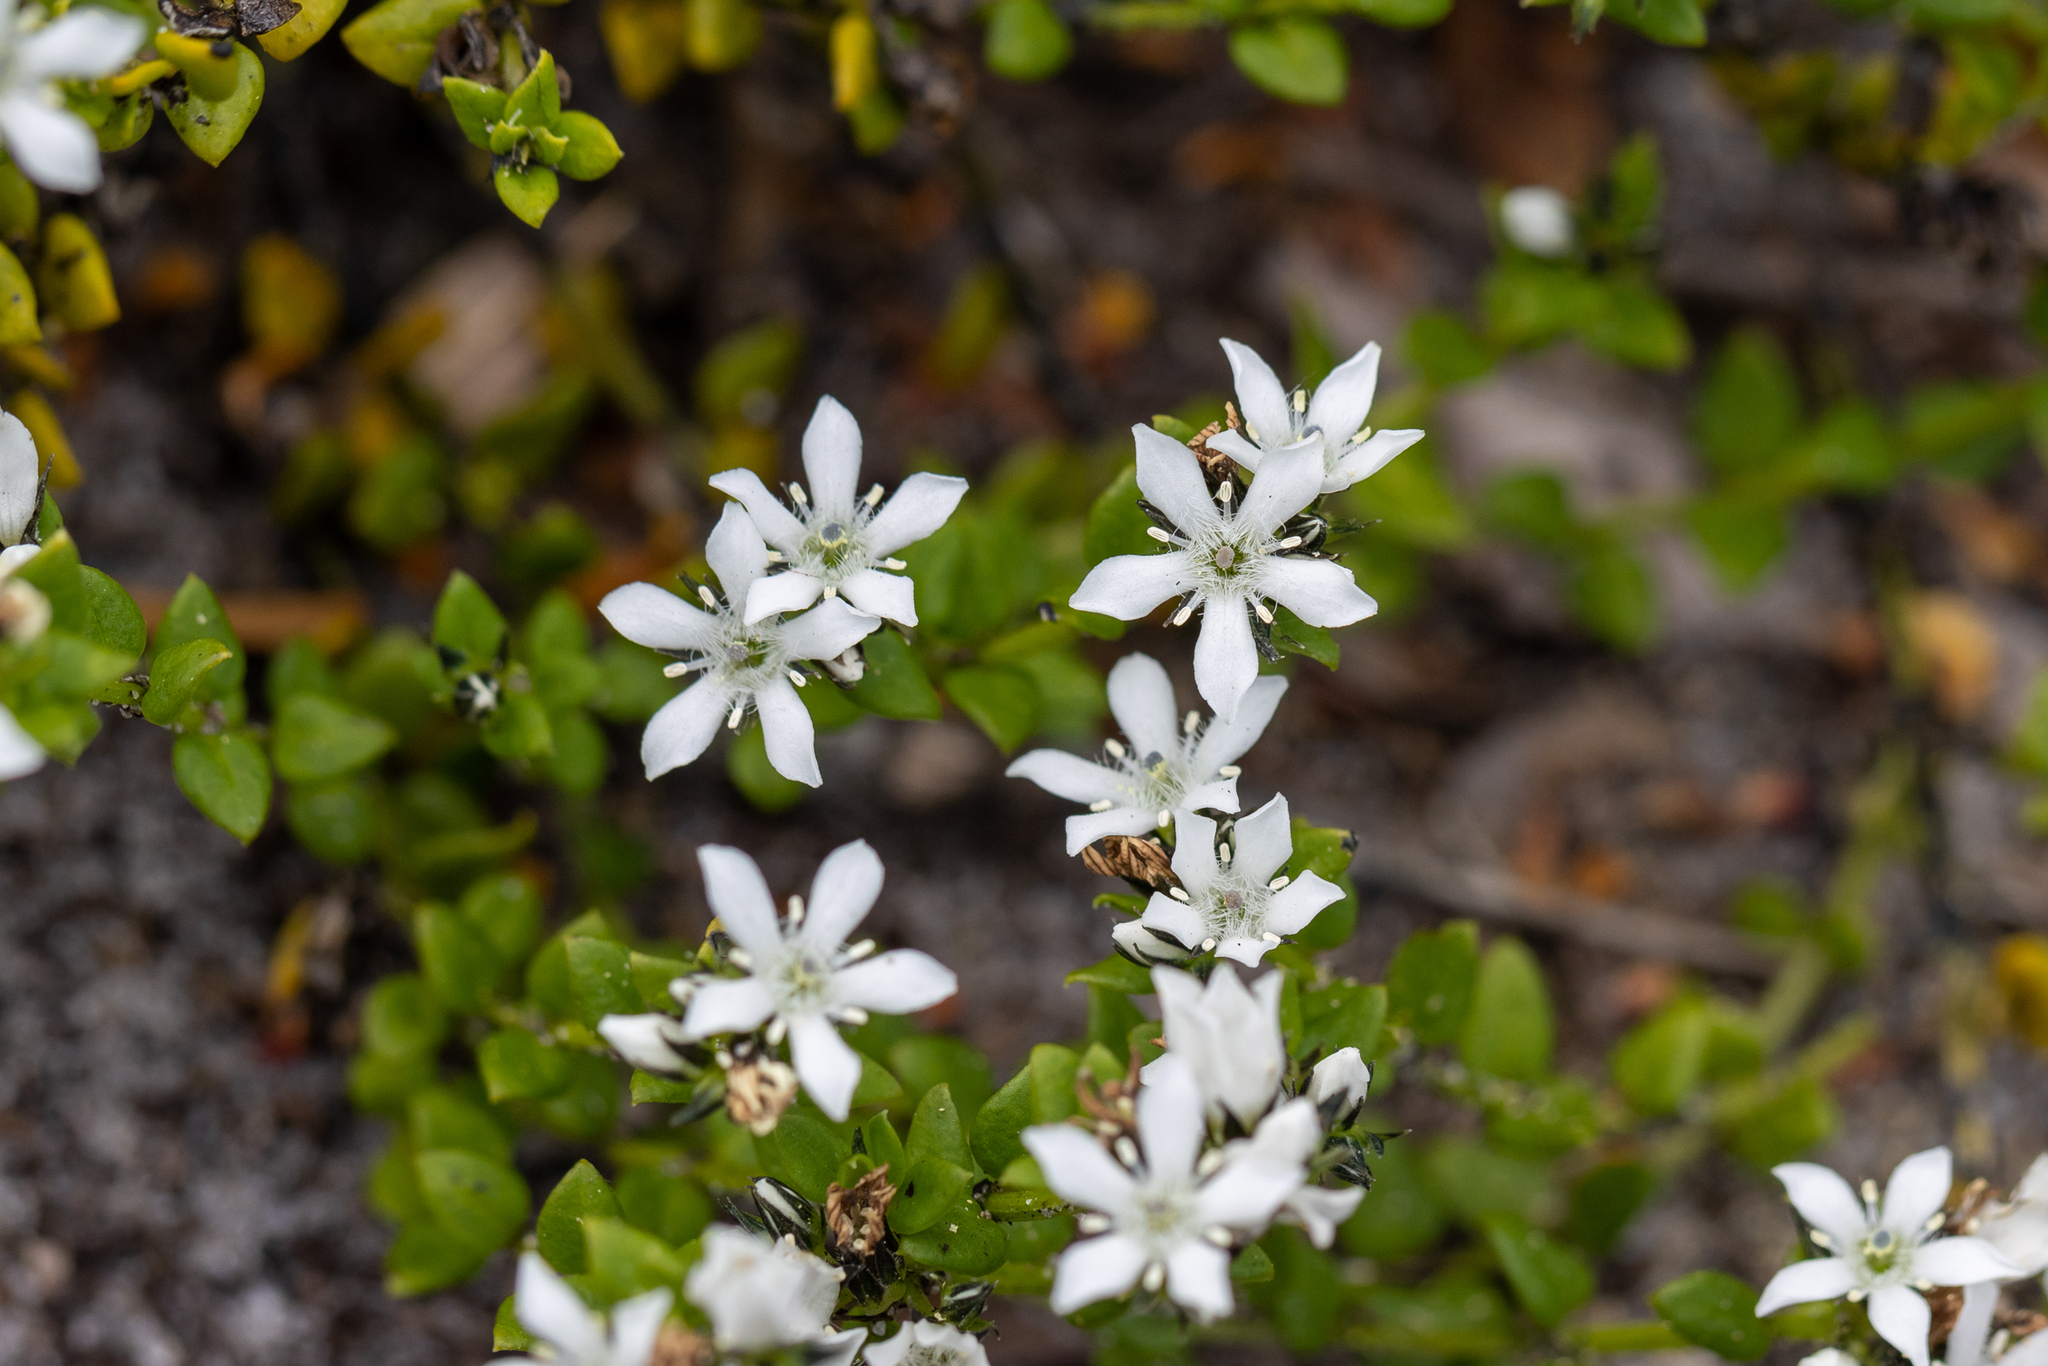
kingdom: Plantae
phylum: Tracheophyta
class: Magnoliopsida
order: Gentianales
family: Loganiaceae
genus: Orianthera
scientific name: Orianthera serpyllifolia
